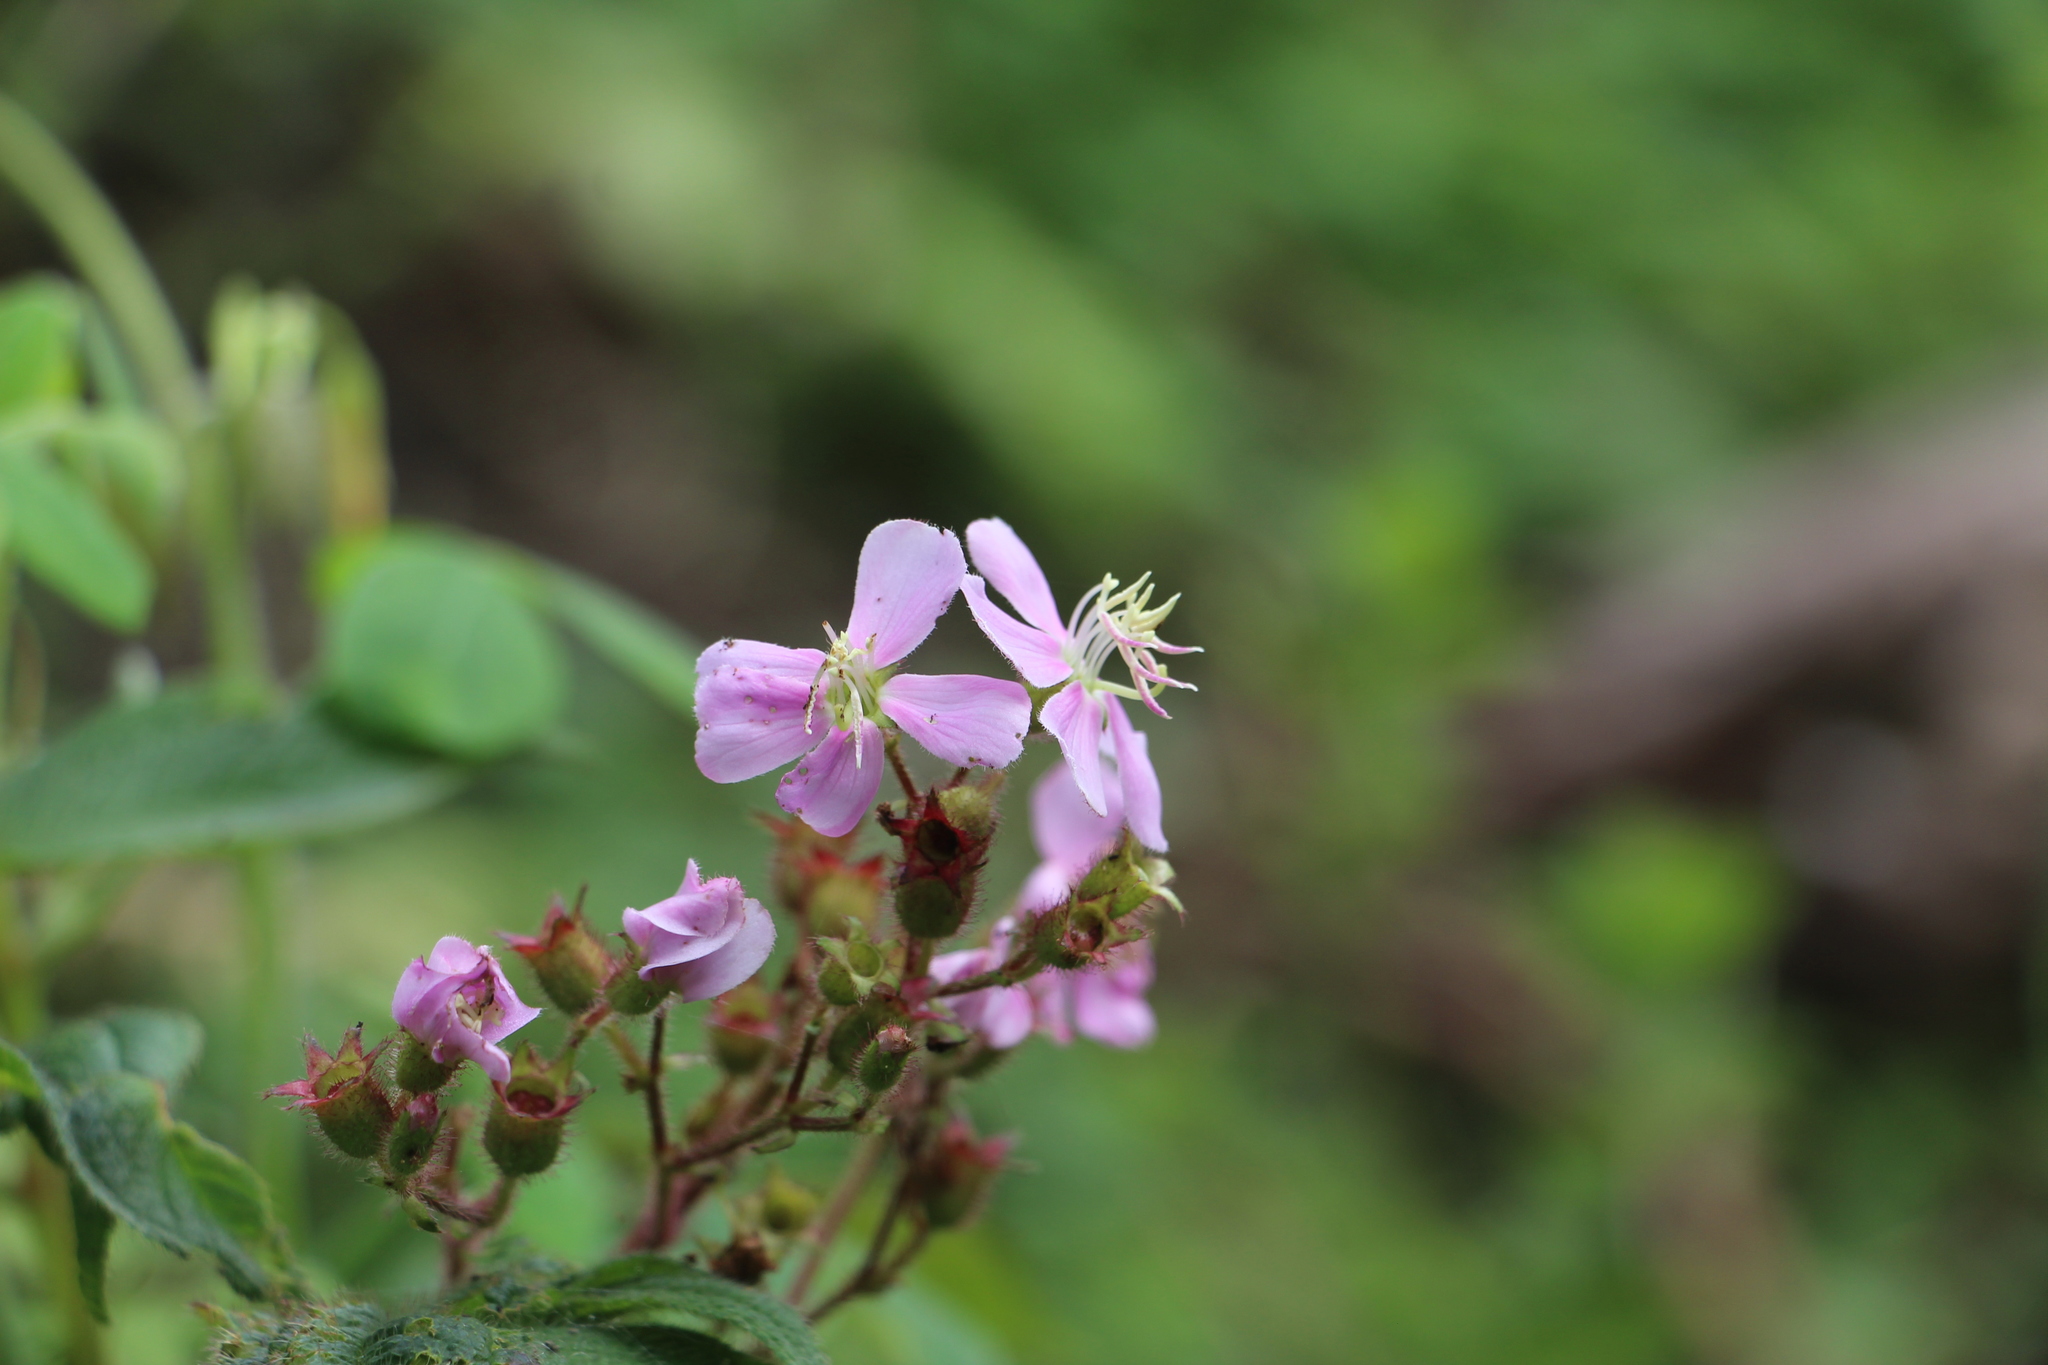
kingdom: Plantae
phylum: Tracheophyta
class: Magnoliopsida
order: Myrtales
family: Melastomataceae
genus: Chaetogastra
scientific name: Chaetogastra gracilis
